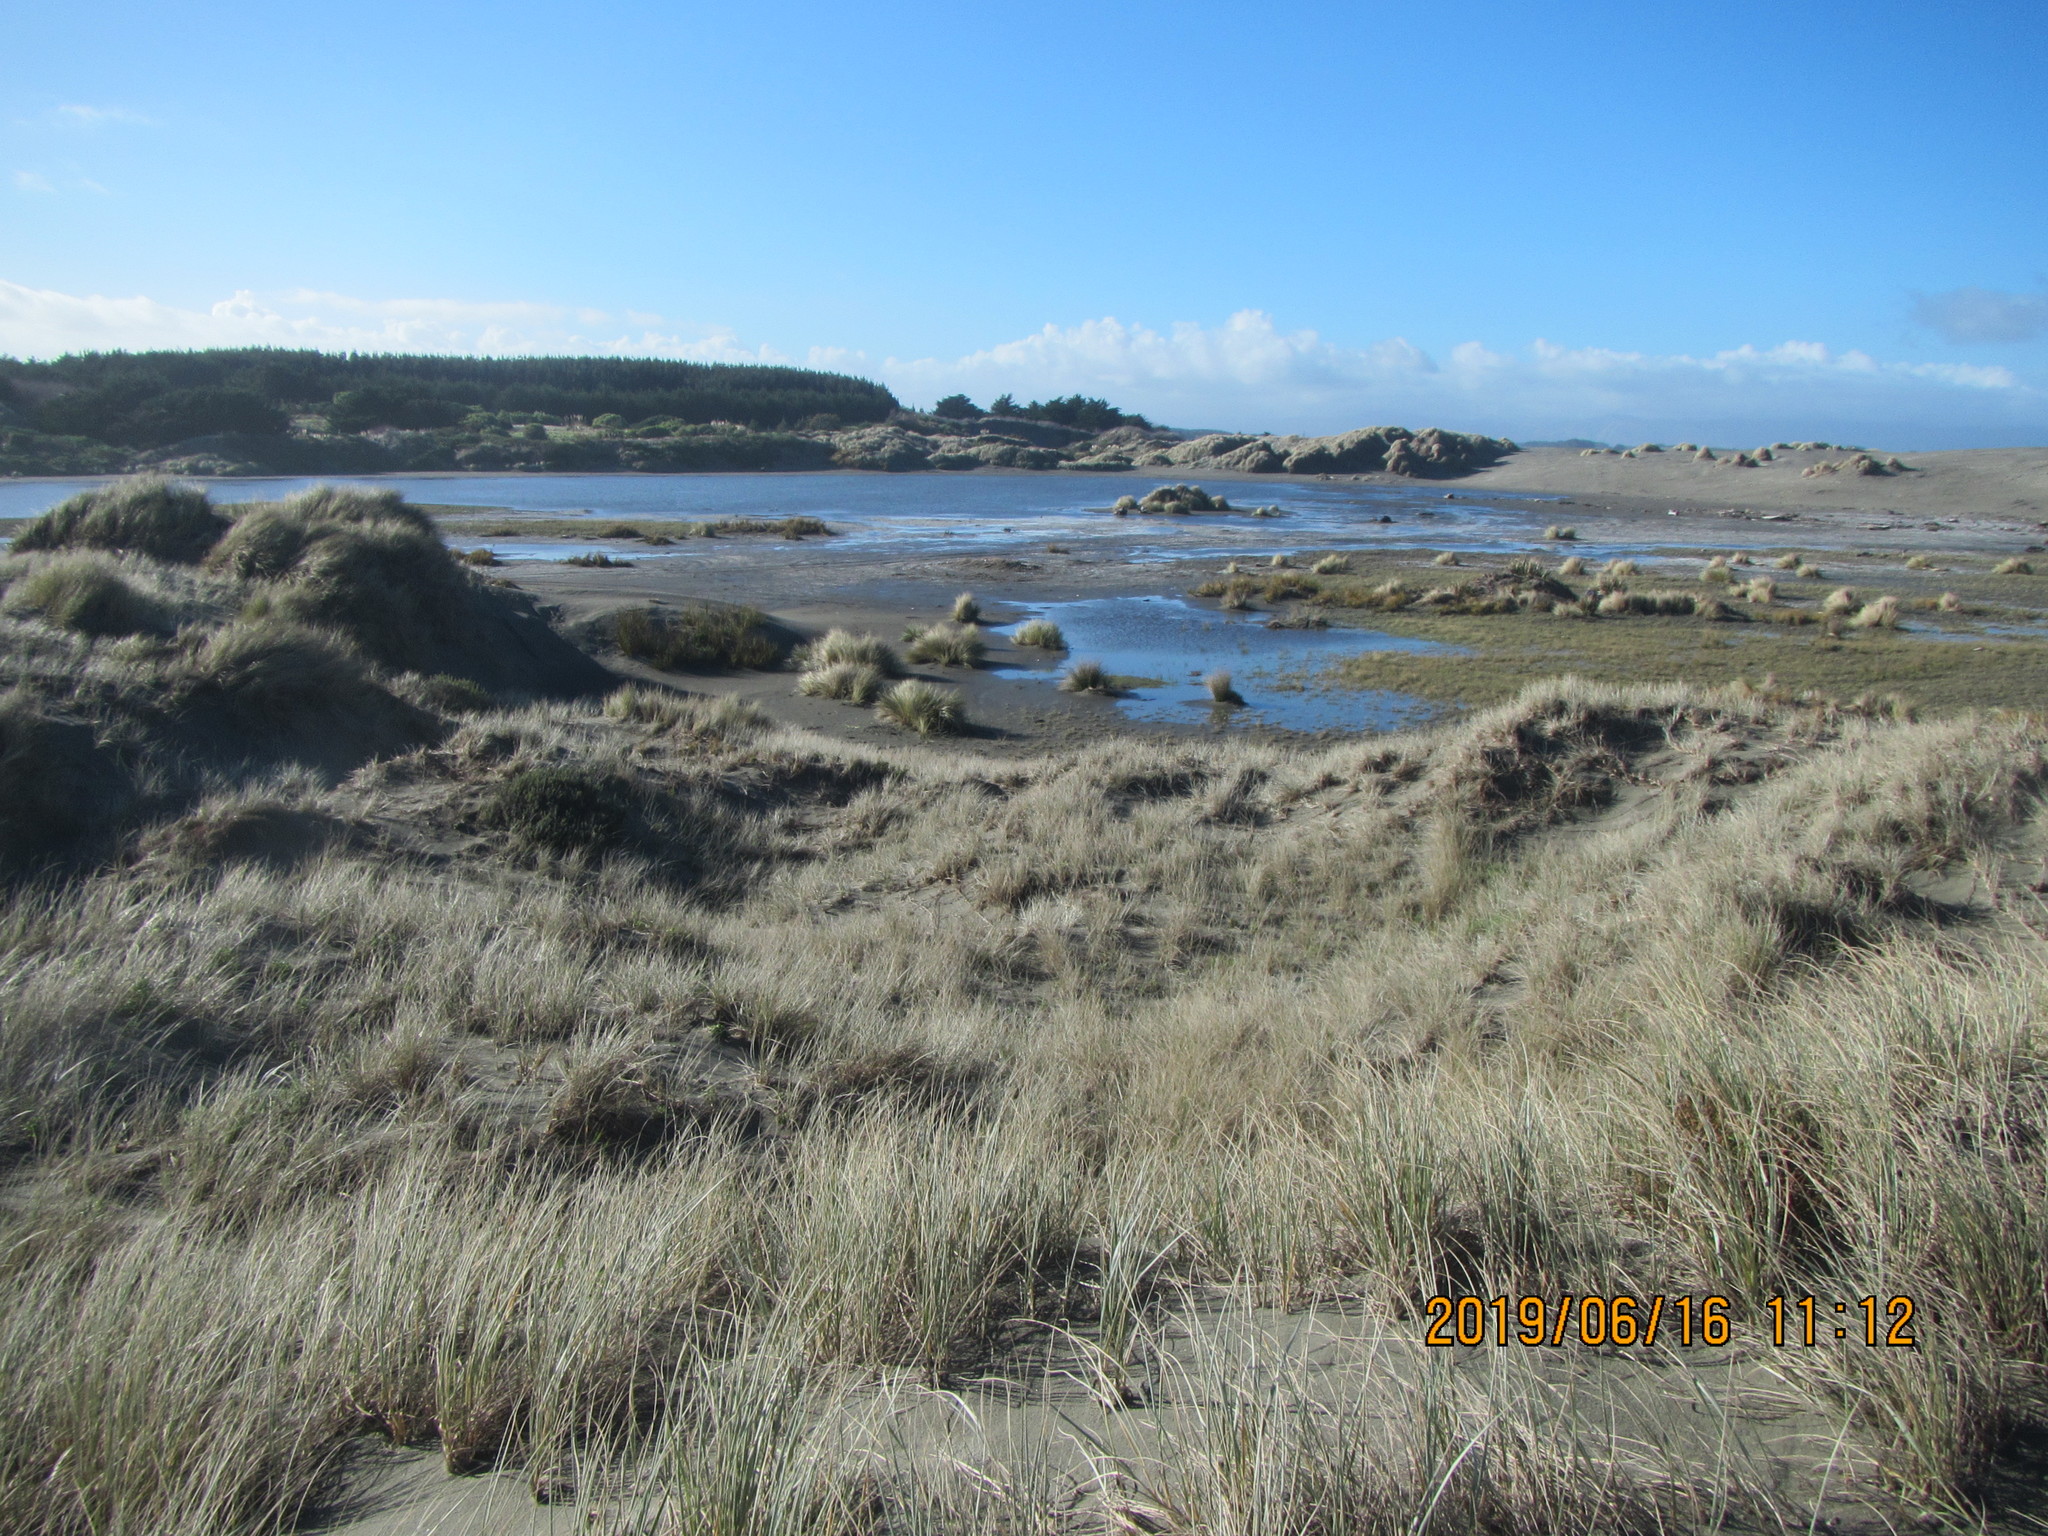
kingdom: Plantae
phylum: Tracheophyta
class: Magnoliopsida
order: Asterales
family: Asteraceae
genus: Senecio
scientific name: Senecio elegans
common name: Purple groundsel
